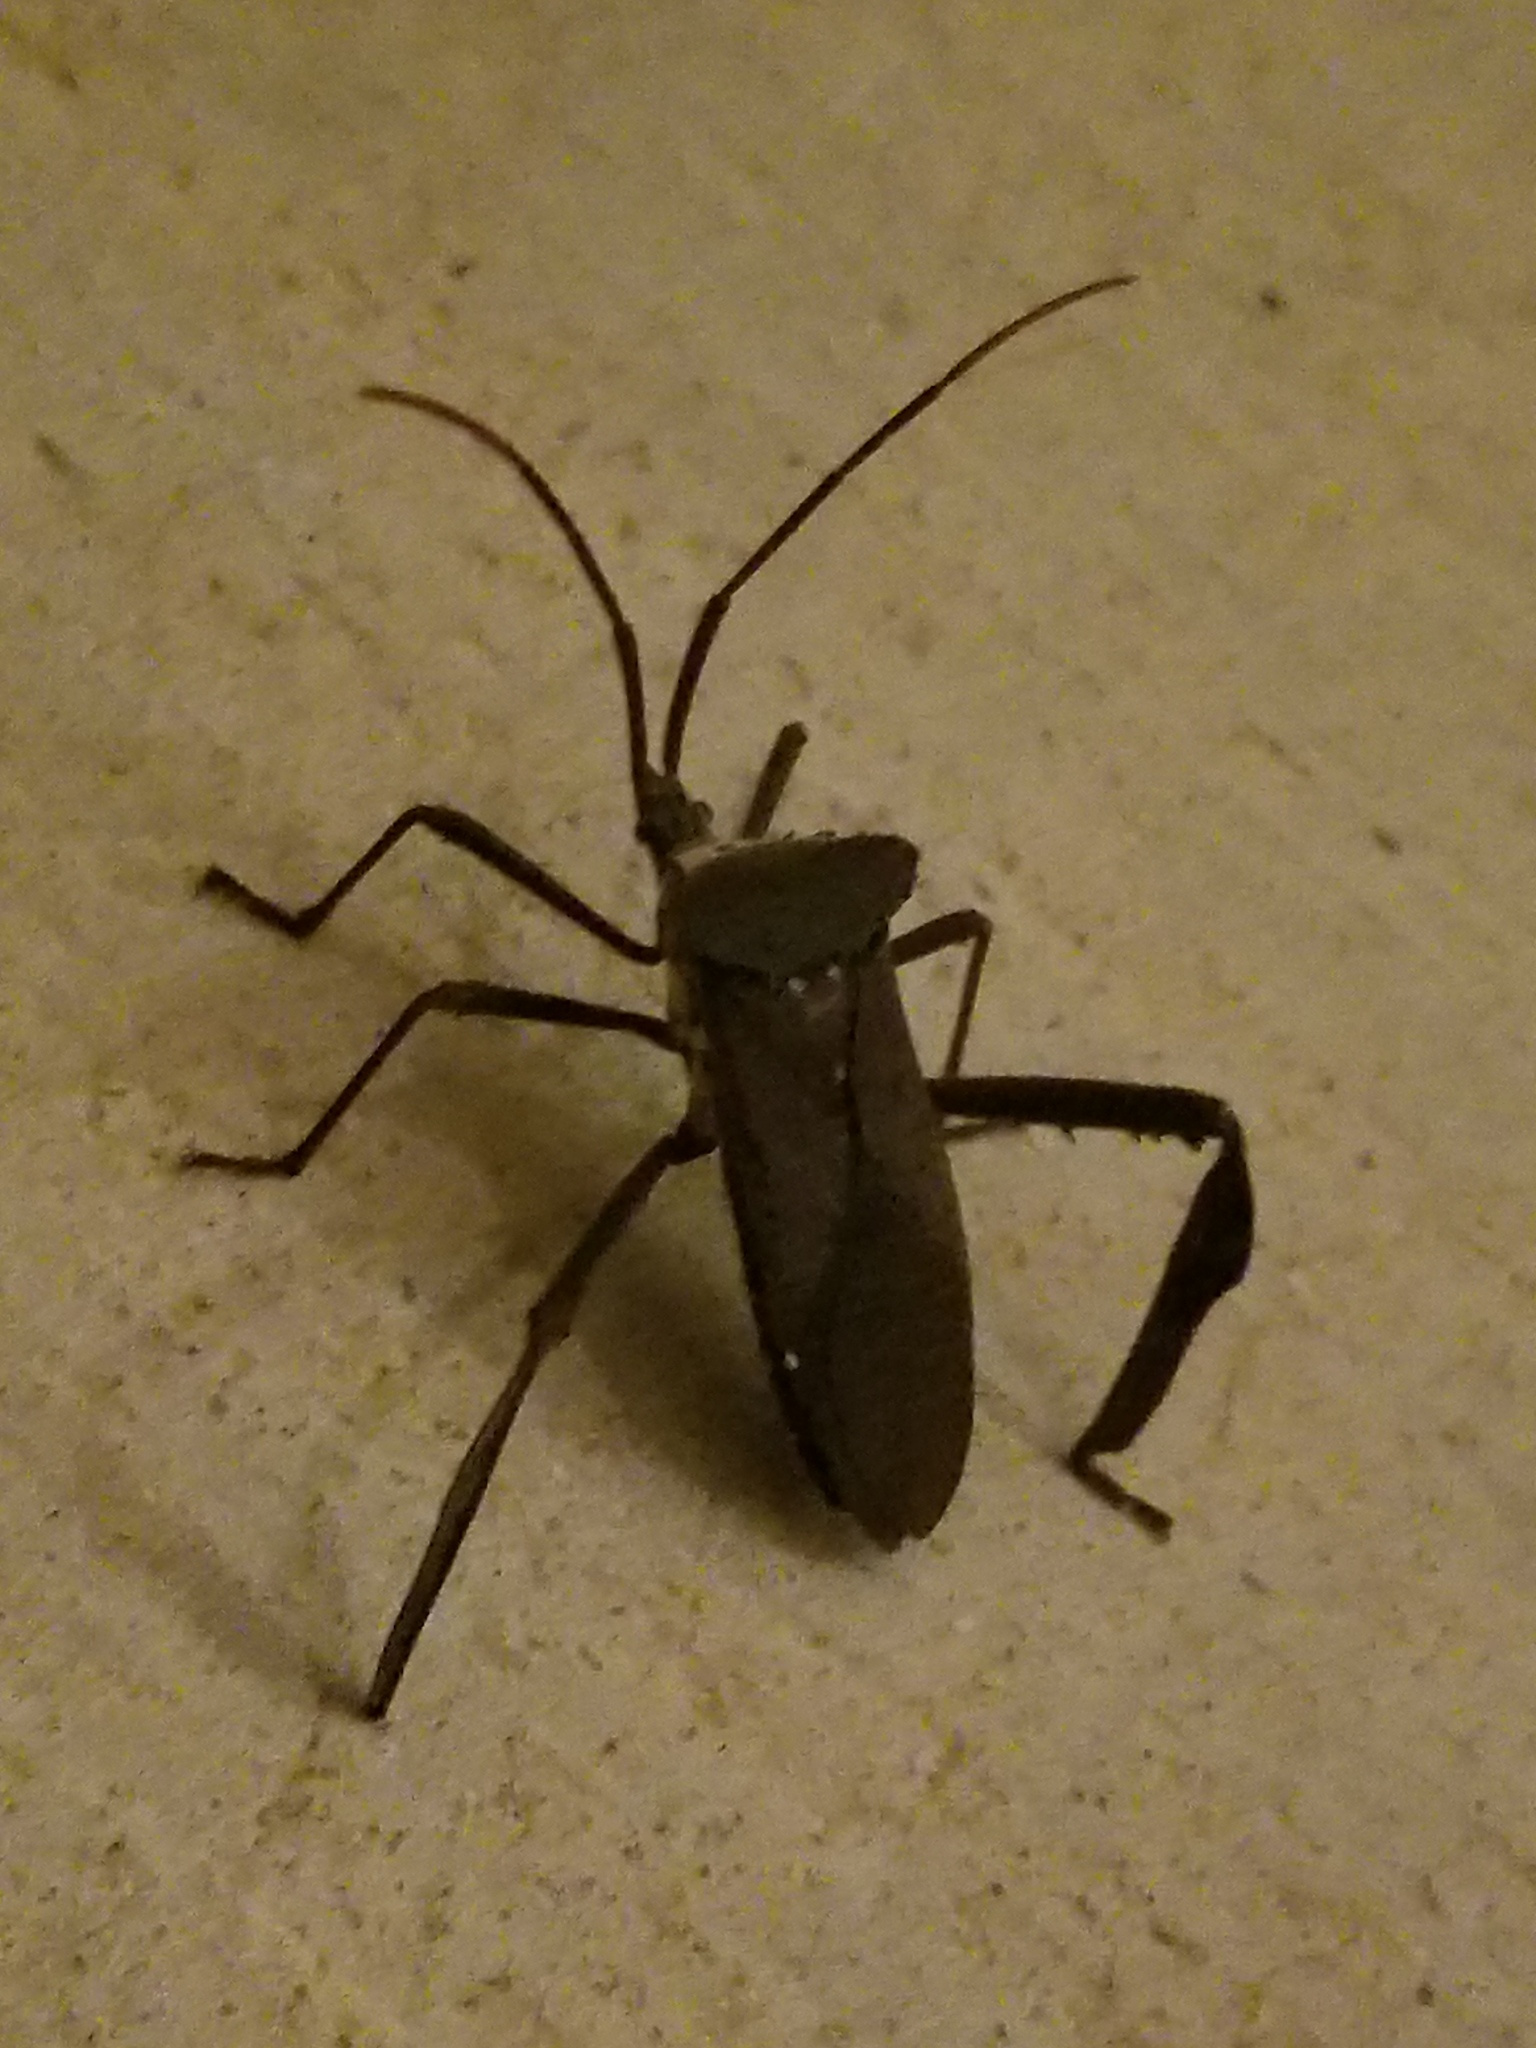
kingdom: Animalia
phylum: Arthropoda
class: Insecta
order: Hemiptera
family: Coreidae
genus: Acanthocephala
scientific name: Acanthocephala declivis
